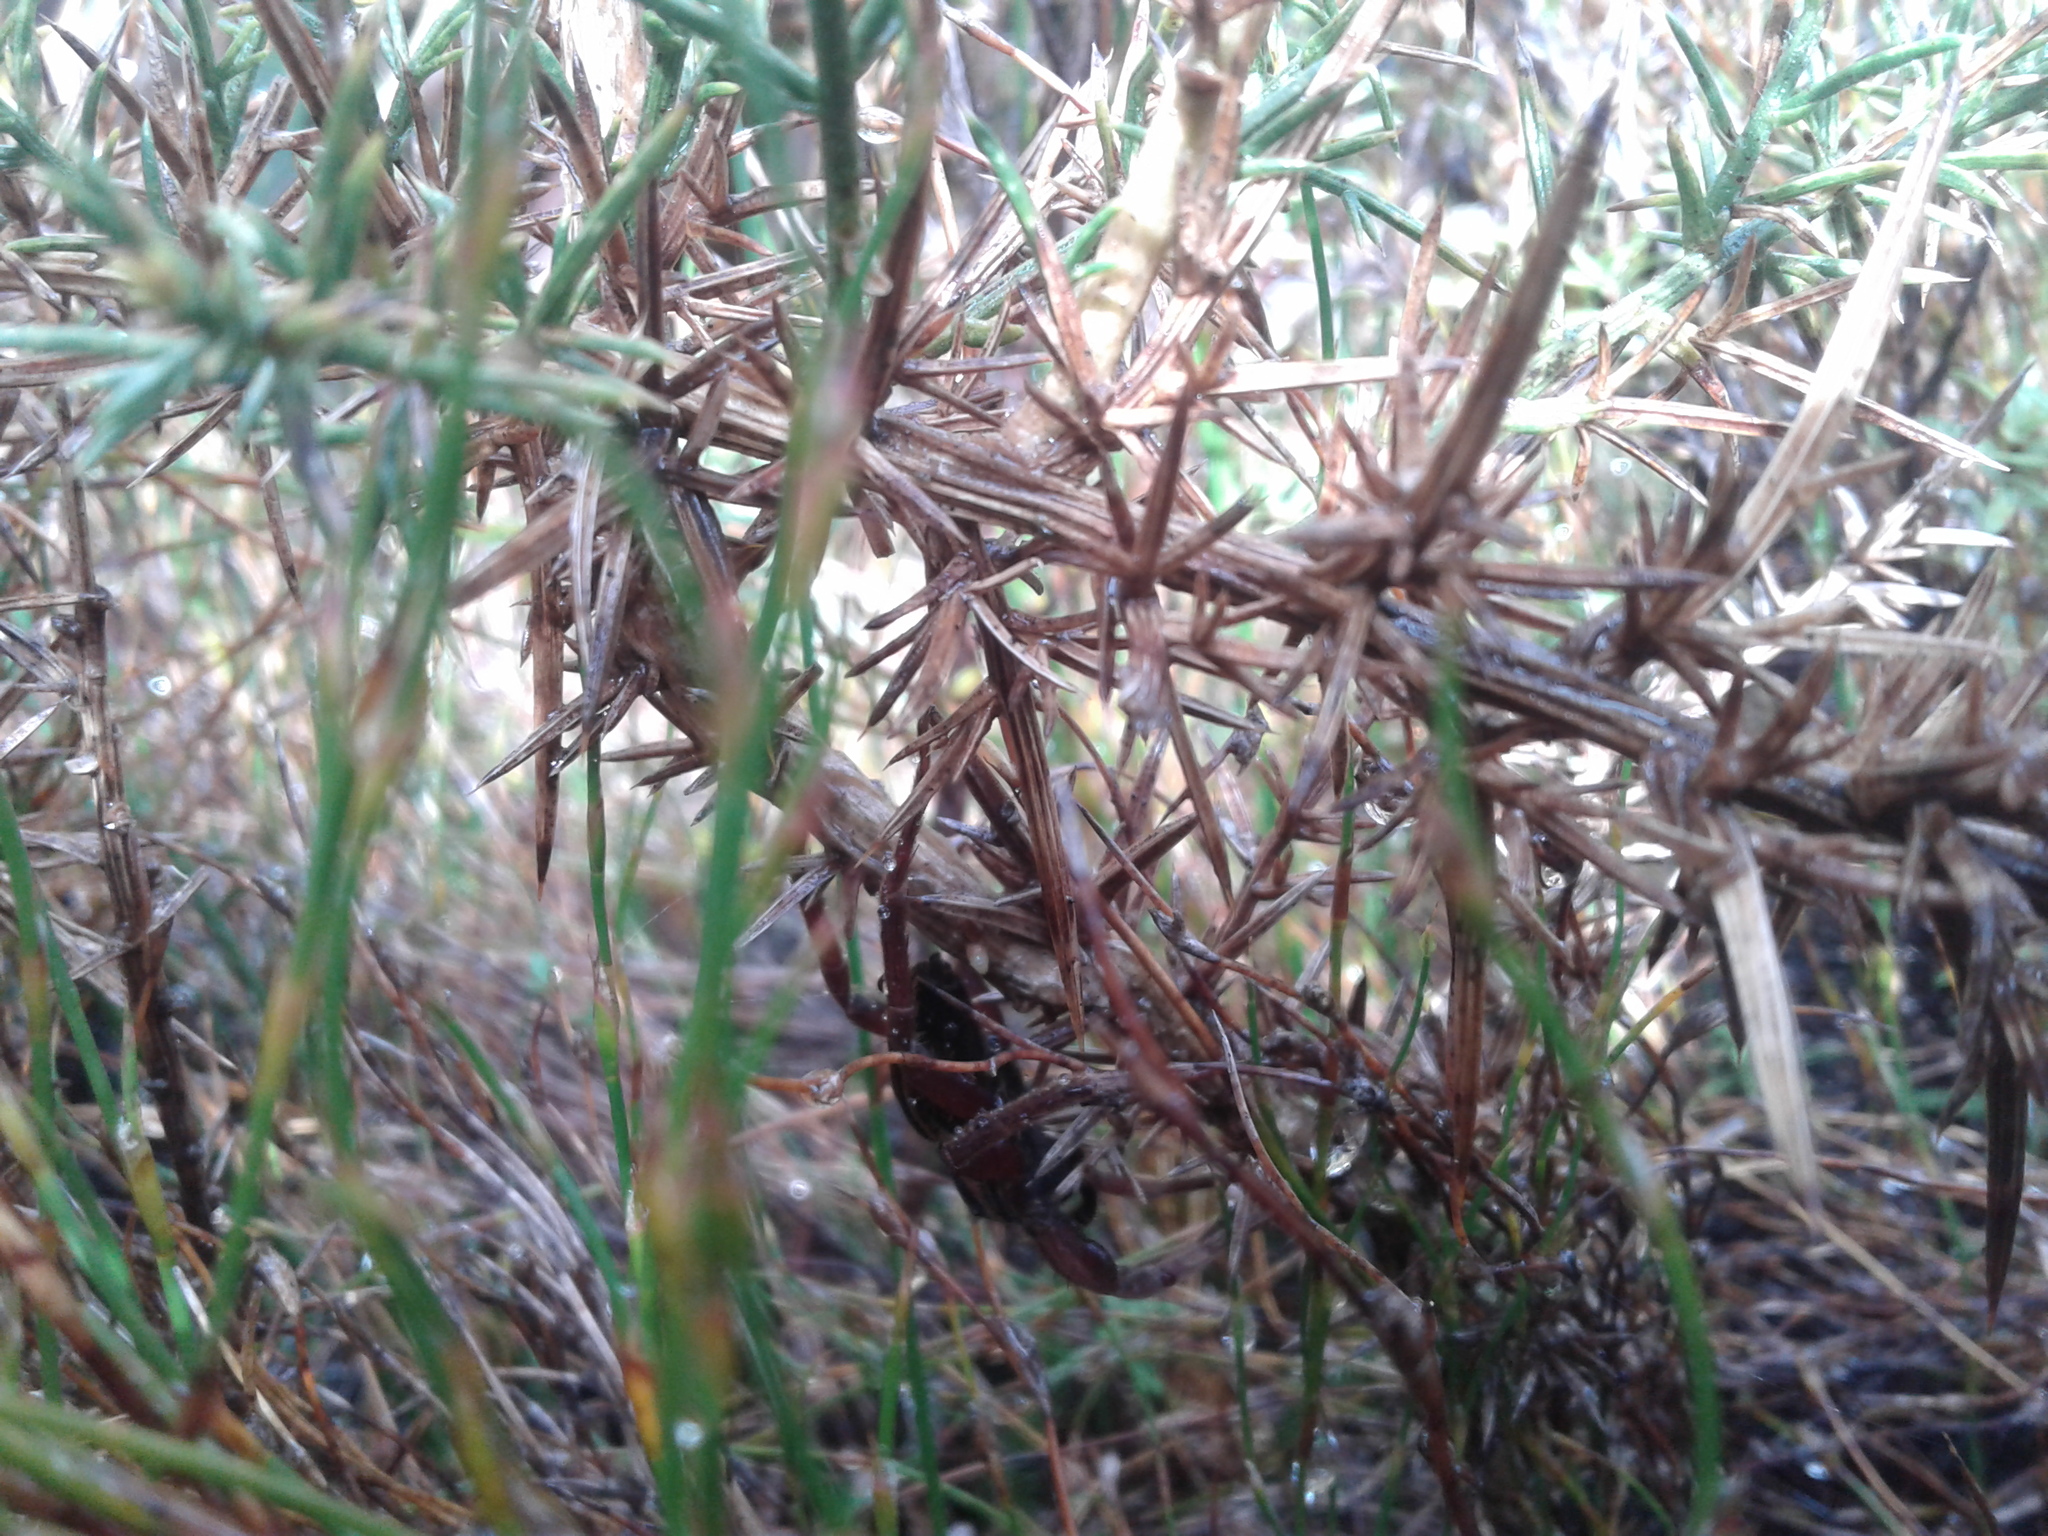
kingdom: Animalia
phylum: Arthropoda
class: Arachnida
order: Araneae
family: Pisauridae
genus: Dolomedes
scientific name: Dolomedes minor
